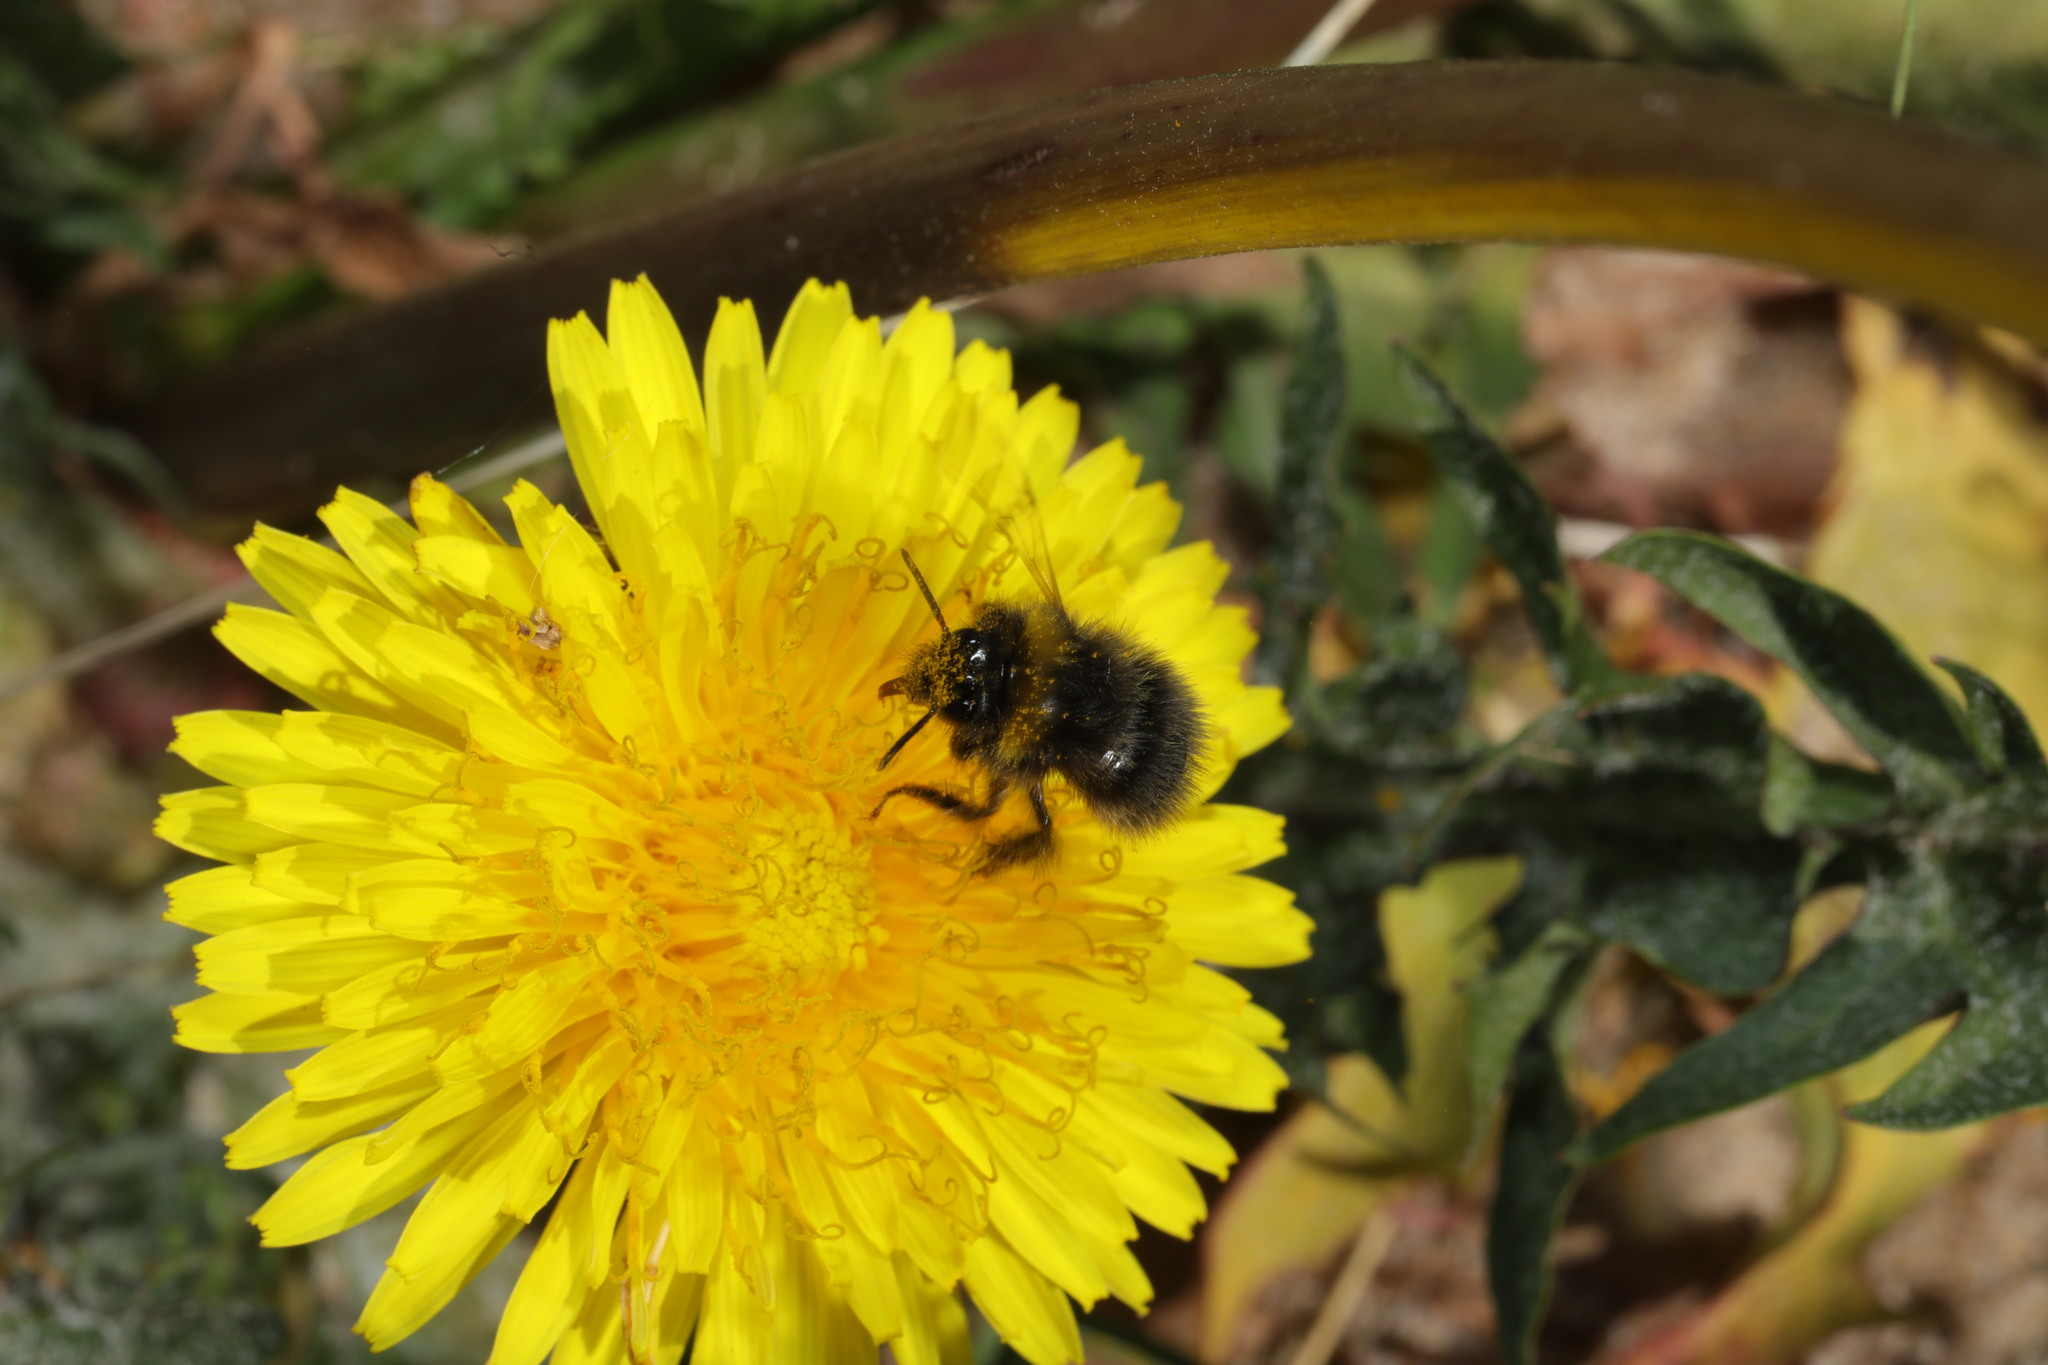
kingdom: Plantae
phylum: Tracheophyta
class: Magnoliopsida
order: Asterales
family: Asteraceae
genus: Taraxacum
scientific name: Taraxacum officinale
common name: Common dandelion
